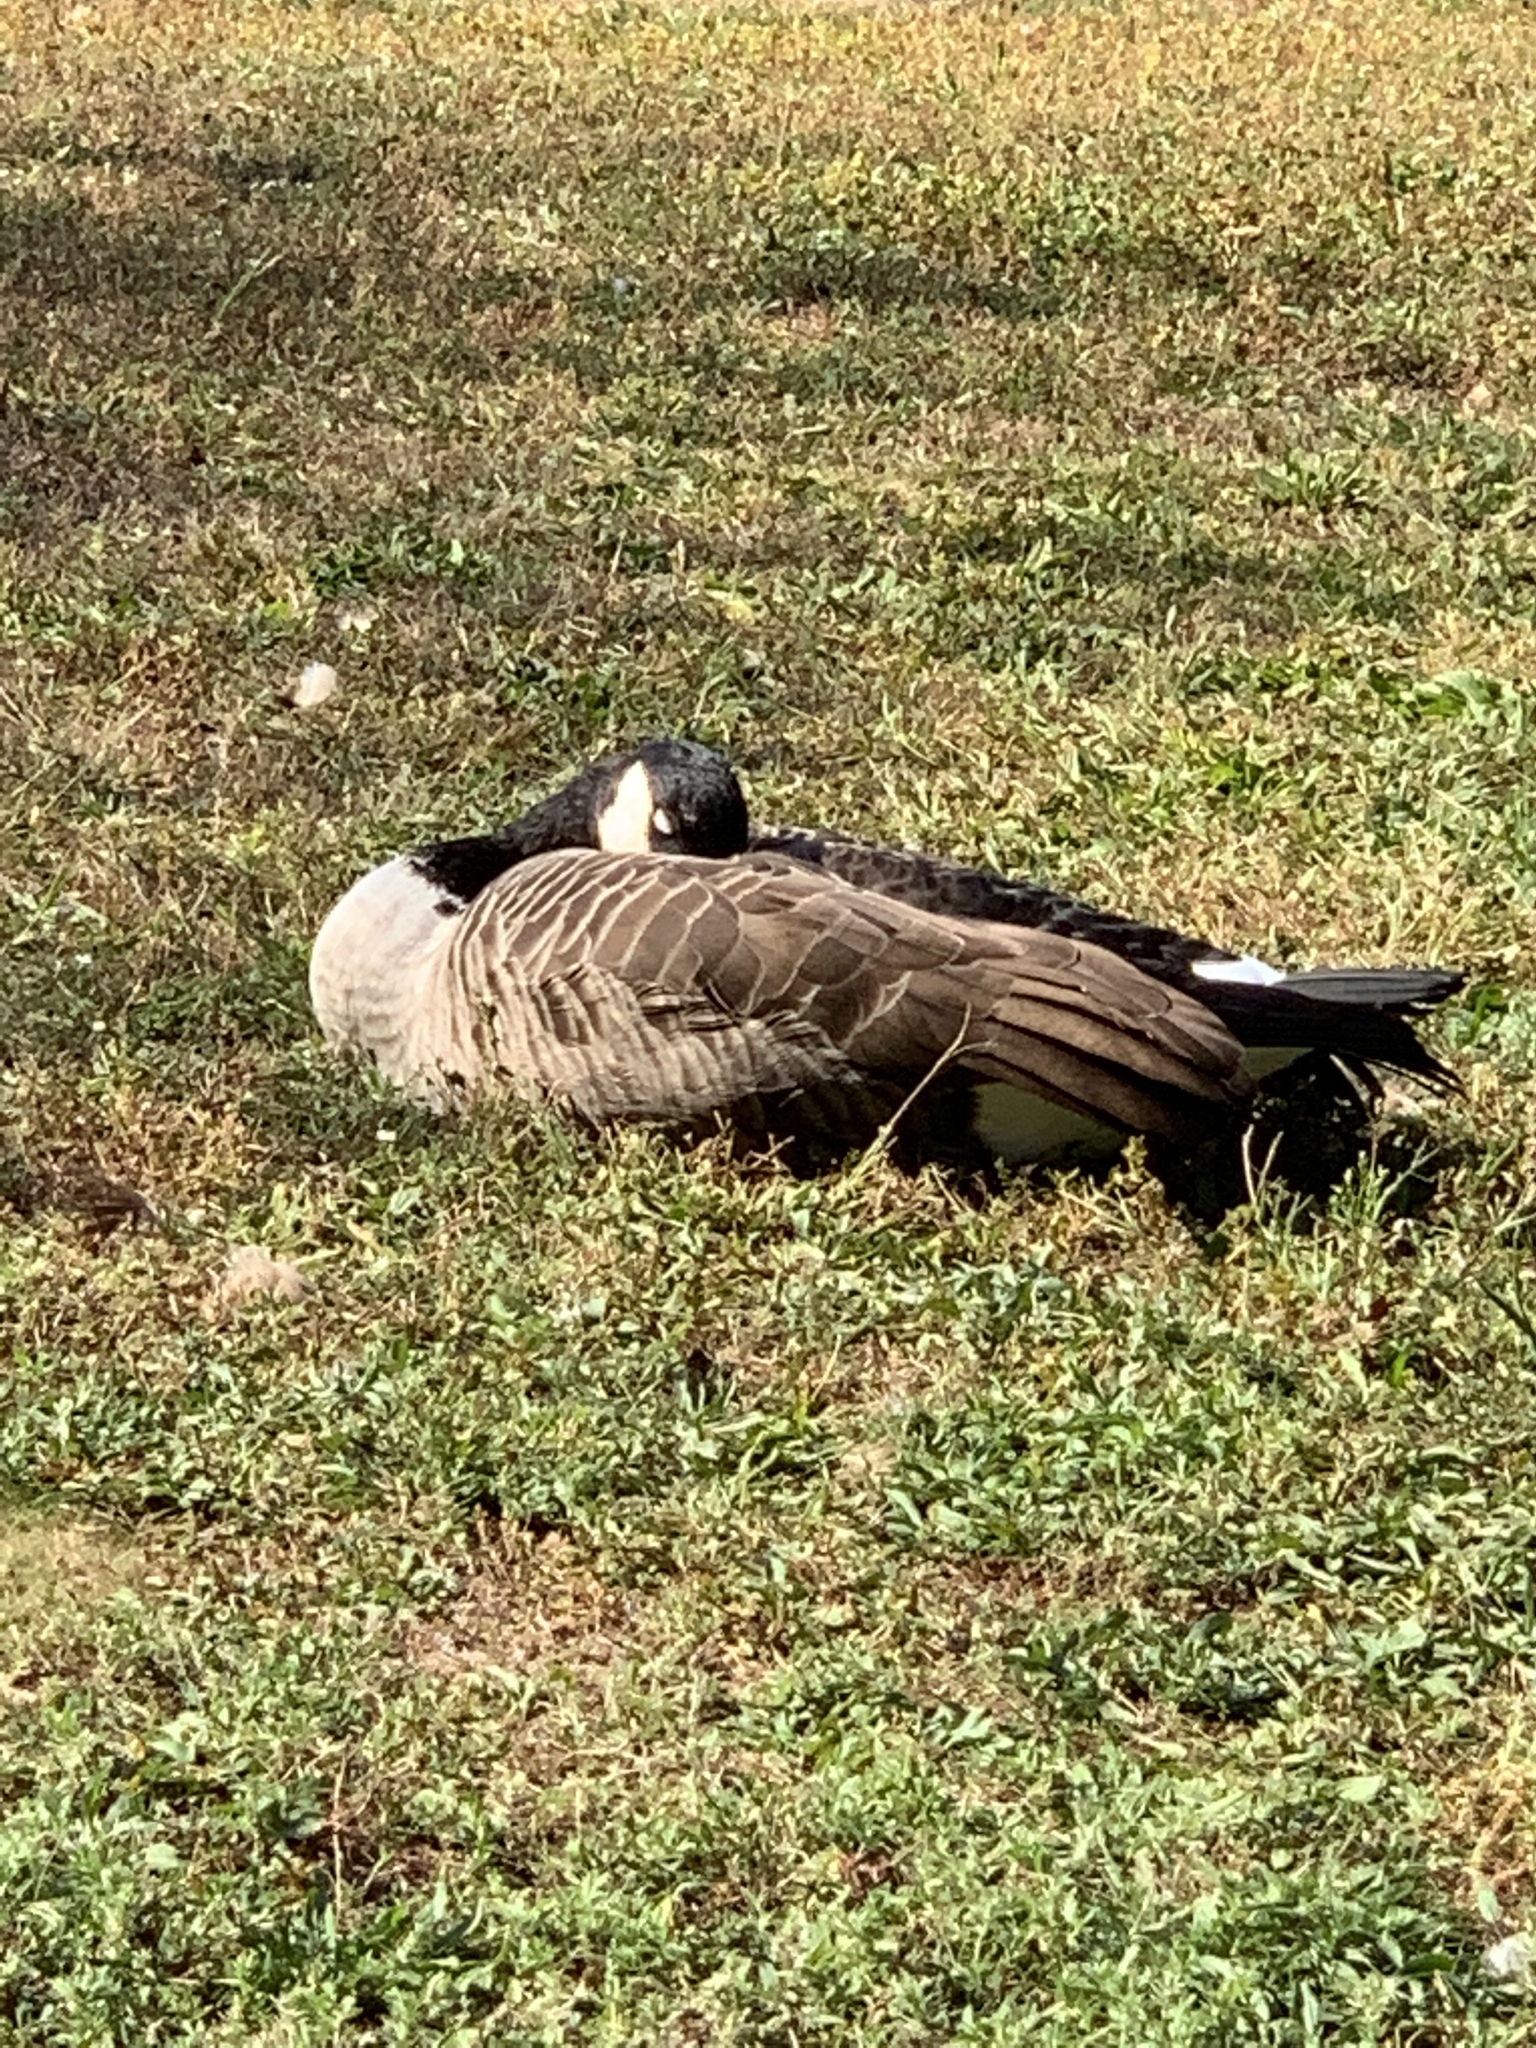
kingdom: Animalia
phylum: Chordata
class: Aves
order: Anseriformes
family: Anatidae
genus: Branta
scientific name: Branta canadensis
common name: Canada goose
